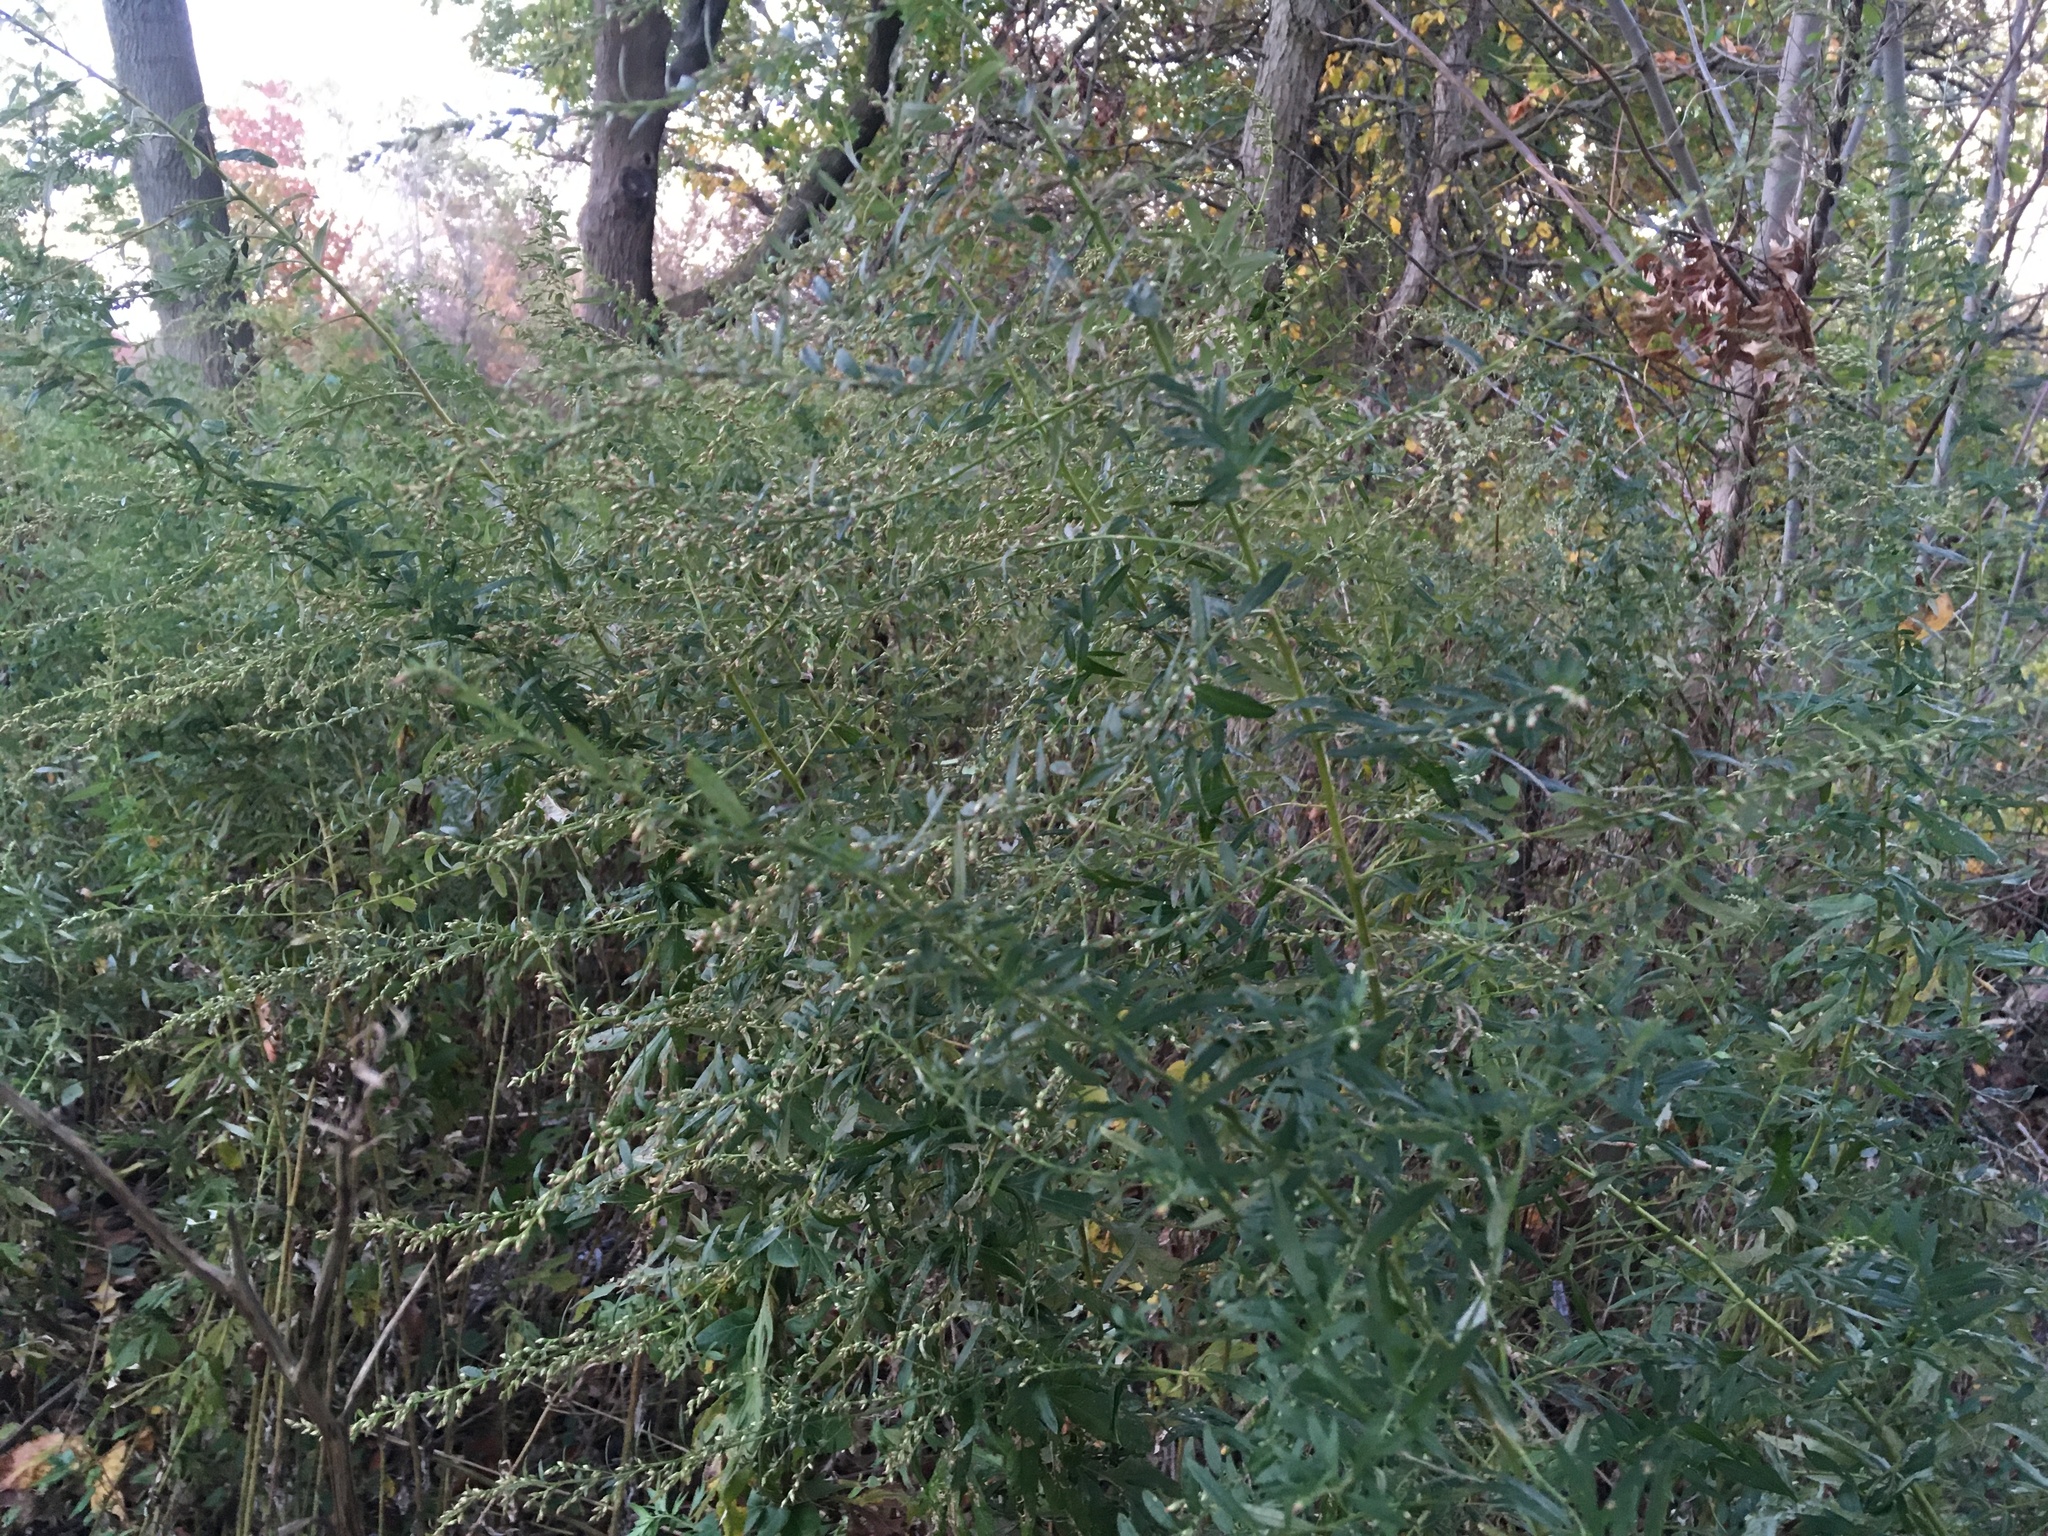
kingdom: Plantae
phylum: Tracheophyta
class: Magnoliopsida
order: Asterales
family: Asteraceae
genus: Artemisia
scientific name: Artemisia vulgaris
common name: Mugwort
